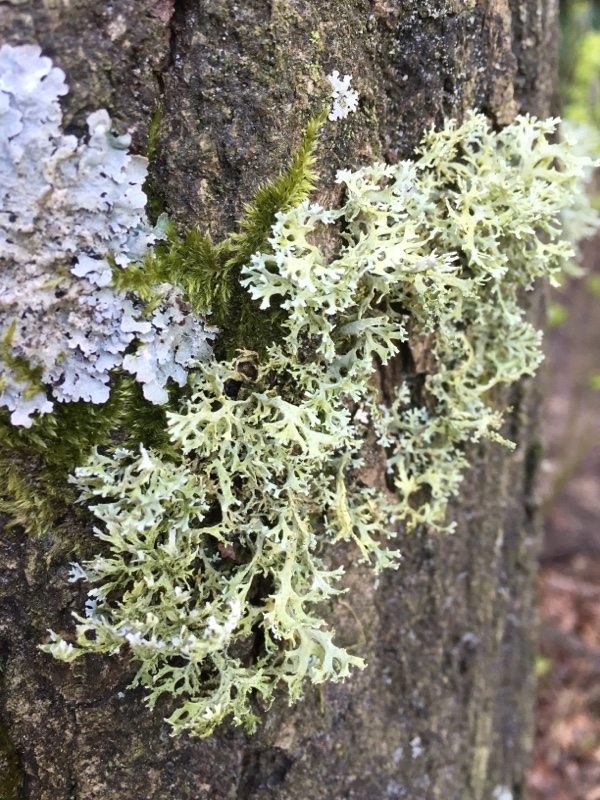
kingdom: Fungi
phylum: Ascomycota
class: Lecanoromycetes
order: Lecanorales
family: Parmeliaceae
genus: Evernia
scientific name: Evernia prunastri
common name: Oak moss
